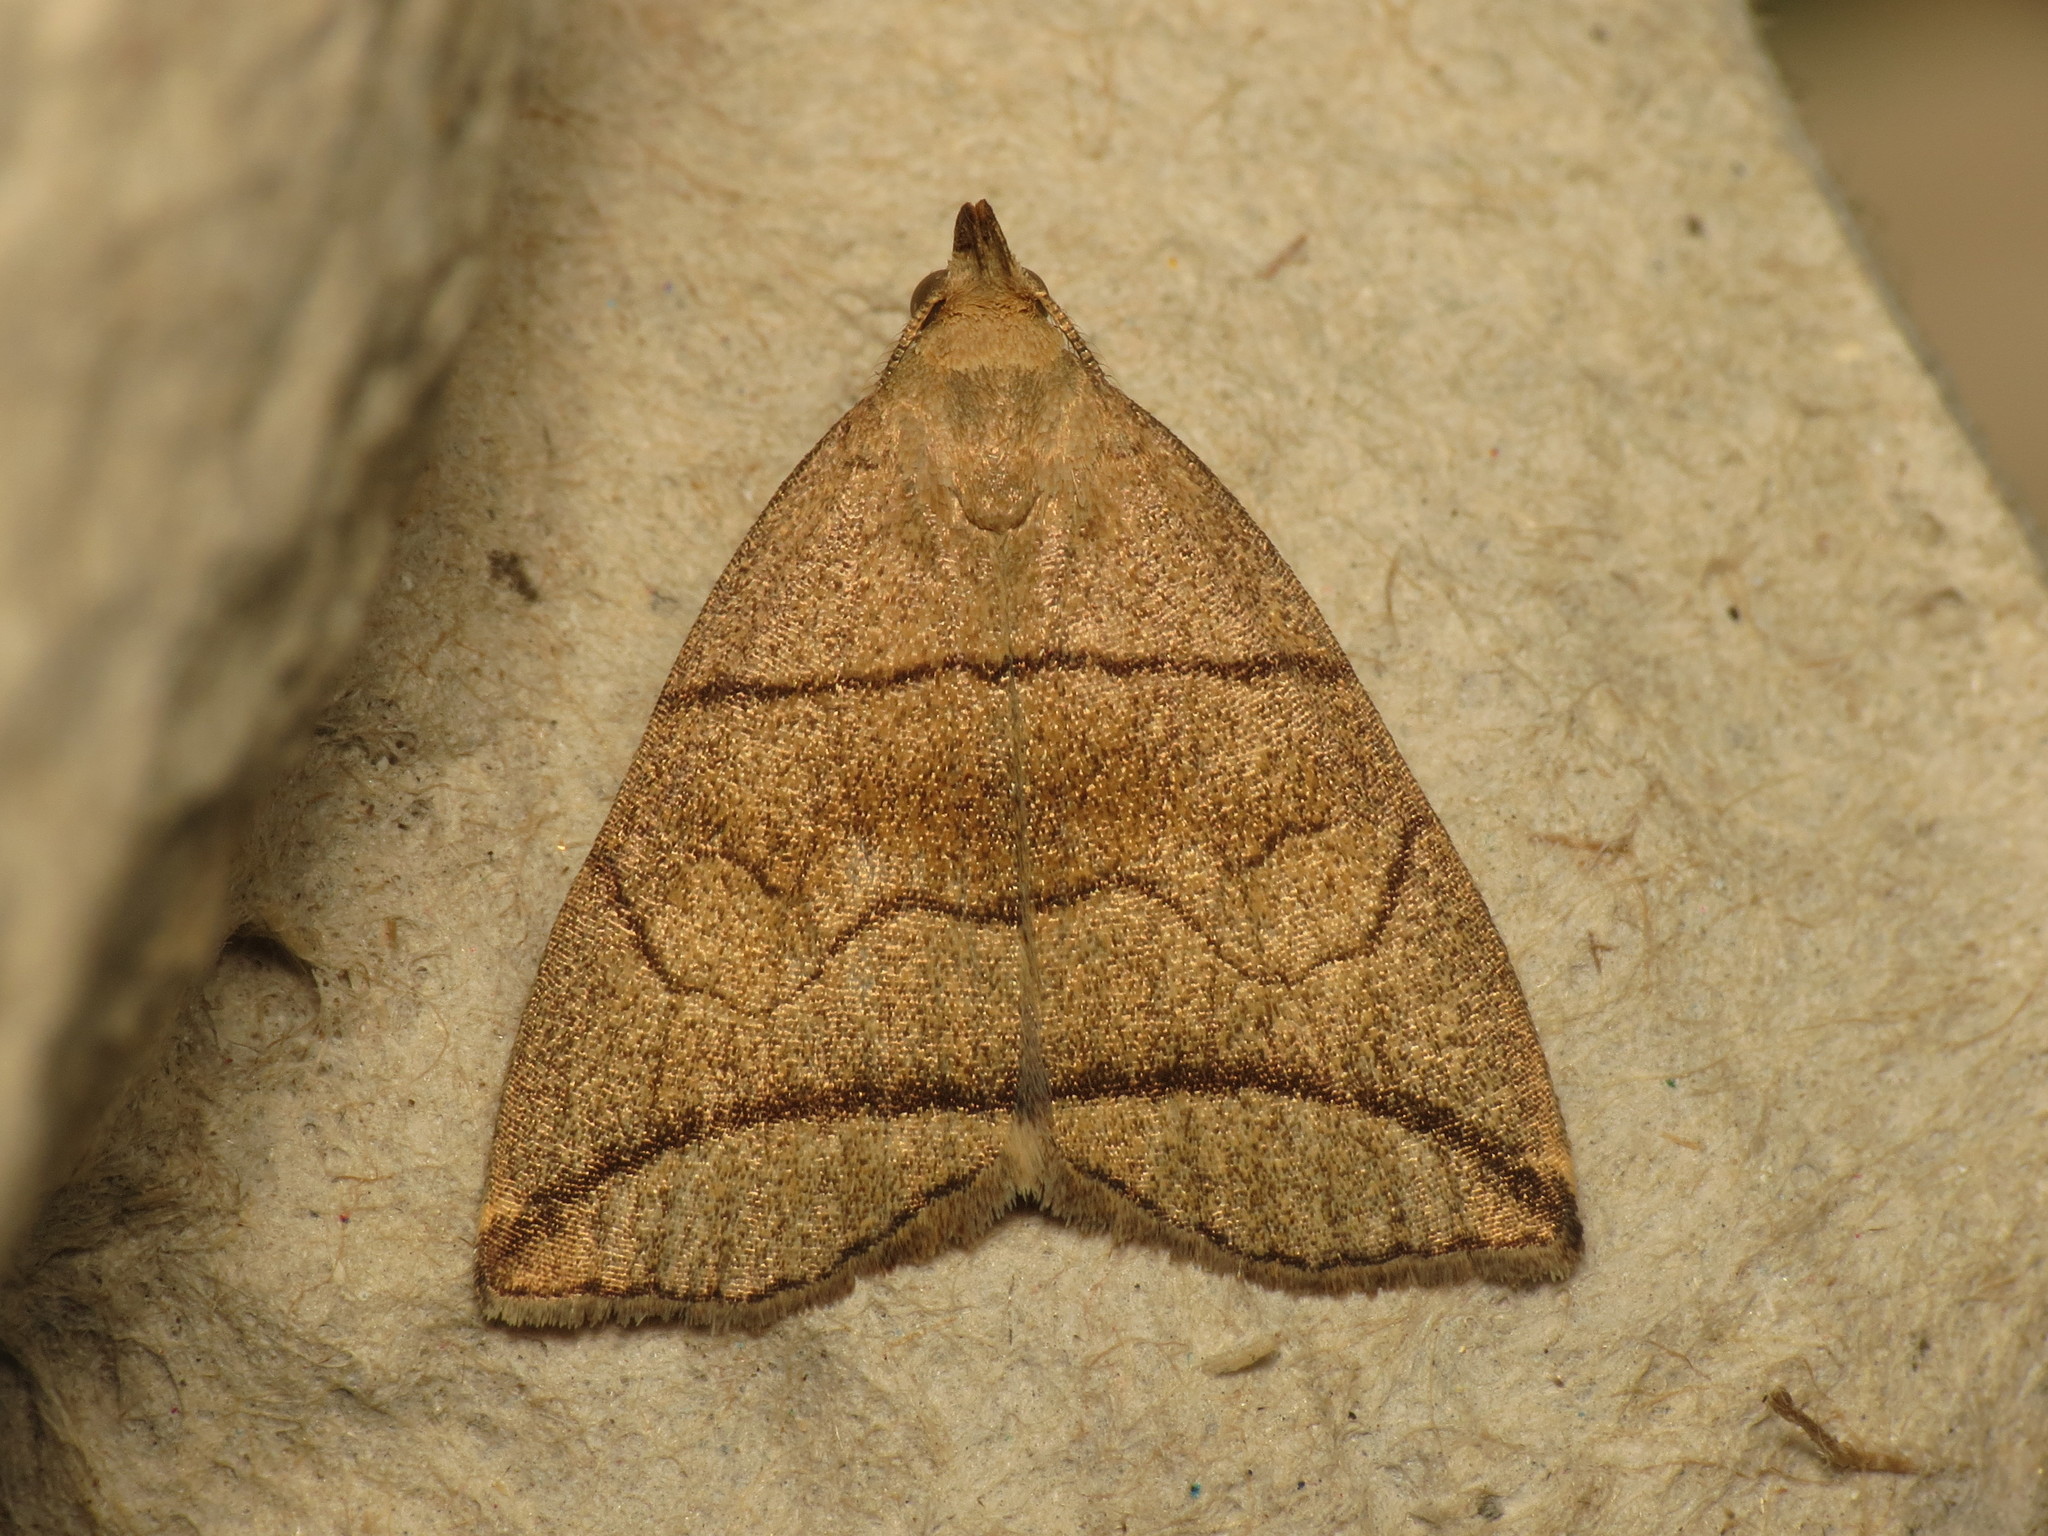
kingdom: Animalia
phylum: Arthropoda
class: Insecta
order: Lepidoptera
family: Erebidae
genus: Herminia
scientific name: Herminia grisealis
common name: Small fan-foot
